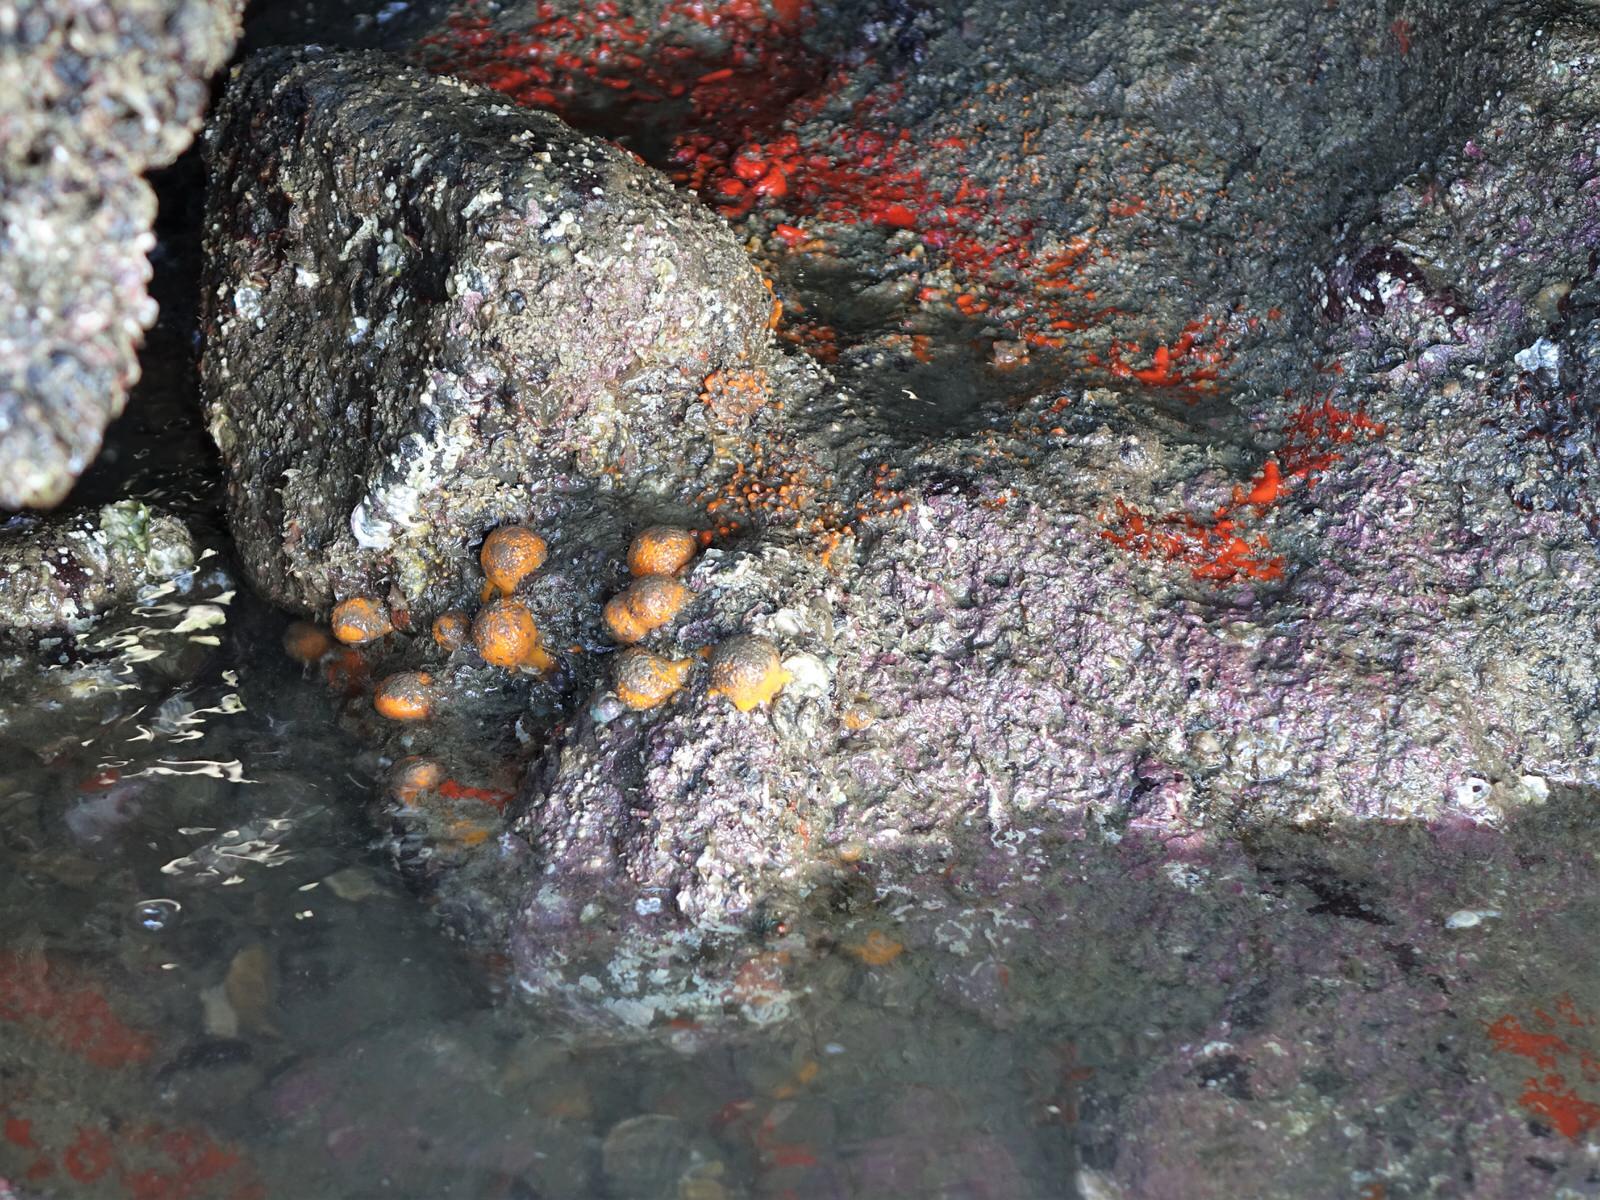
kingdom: Animalia
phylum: Porifera
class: Demospongiae
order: Tethyida
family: Tethyidae
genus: Tethya
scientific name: Tethya burtoni
